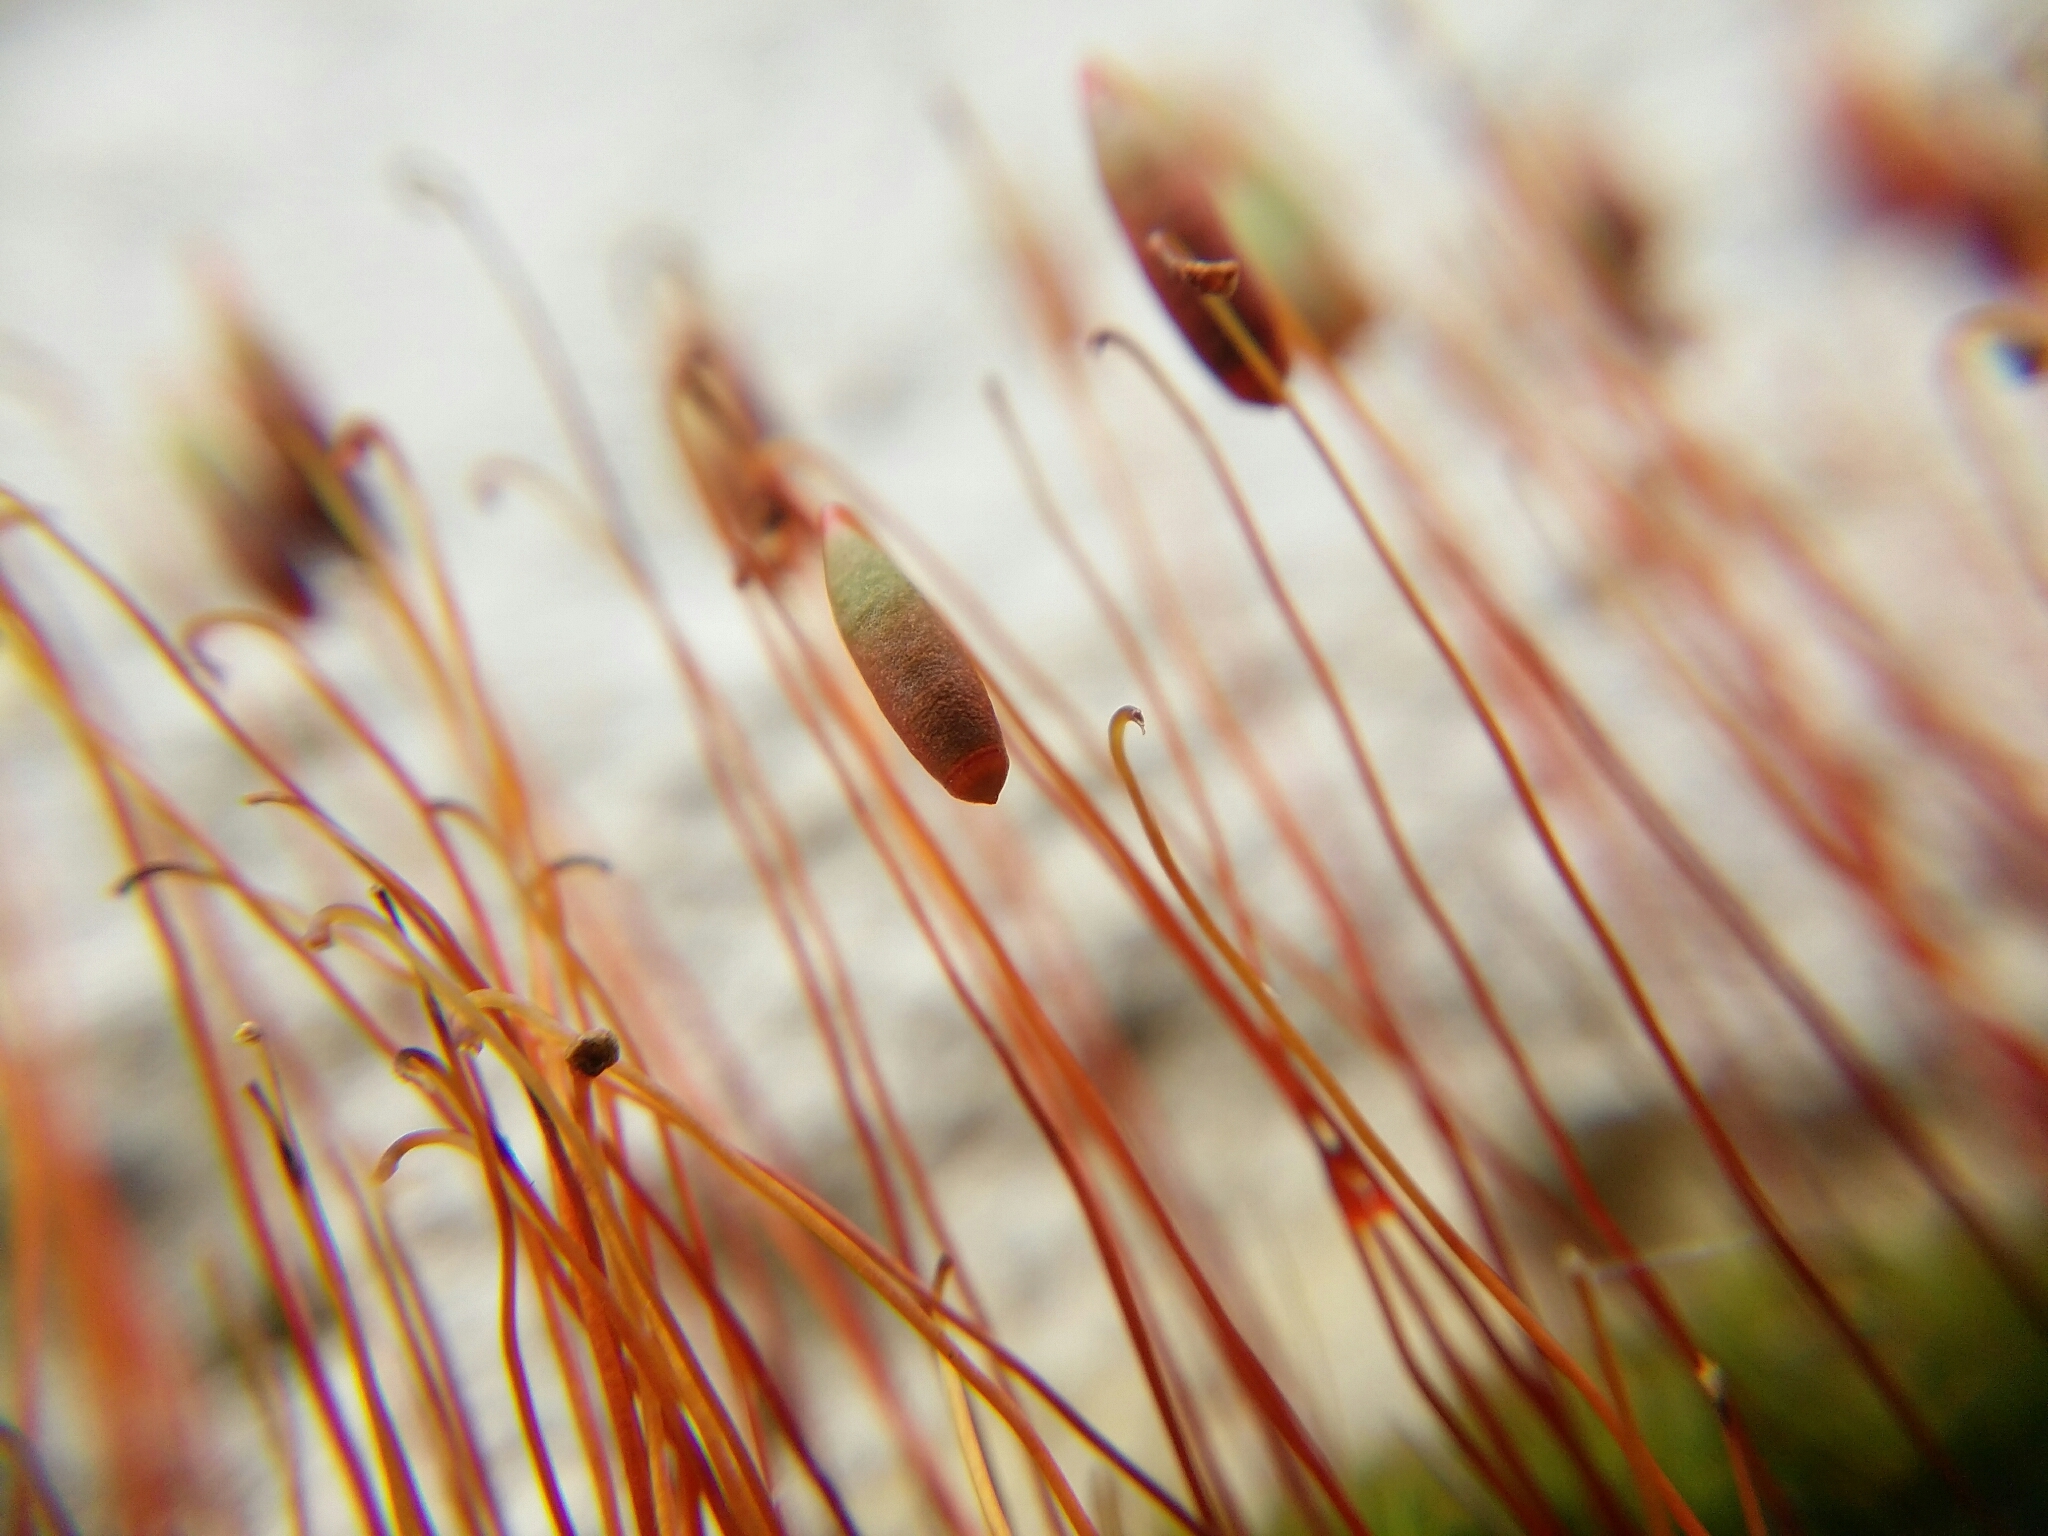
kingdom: Plantae
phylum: Bryophyta
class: Bryopsida
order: Bryales
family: Bryaceae
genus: Rosulabryum
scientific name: Rosulabryum torquescens
